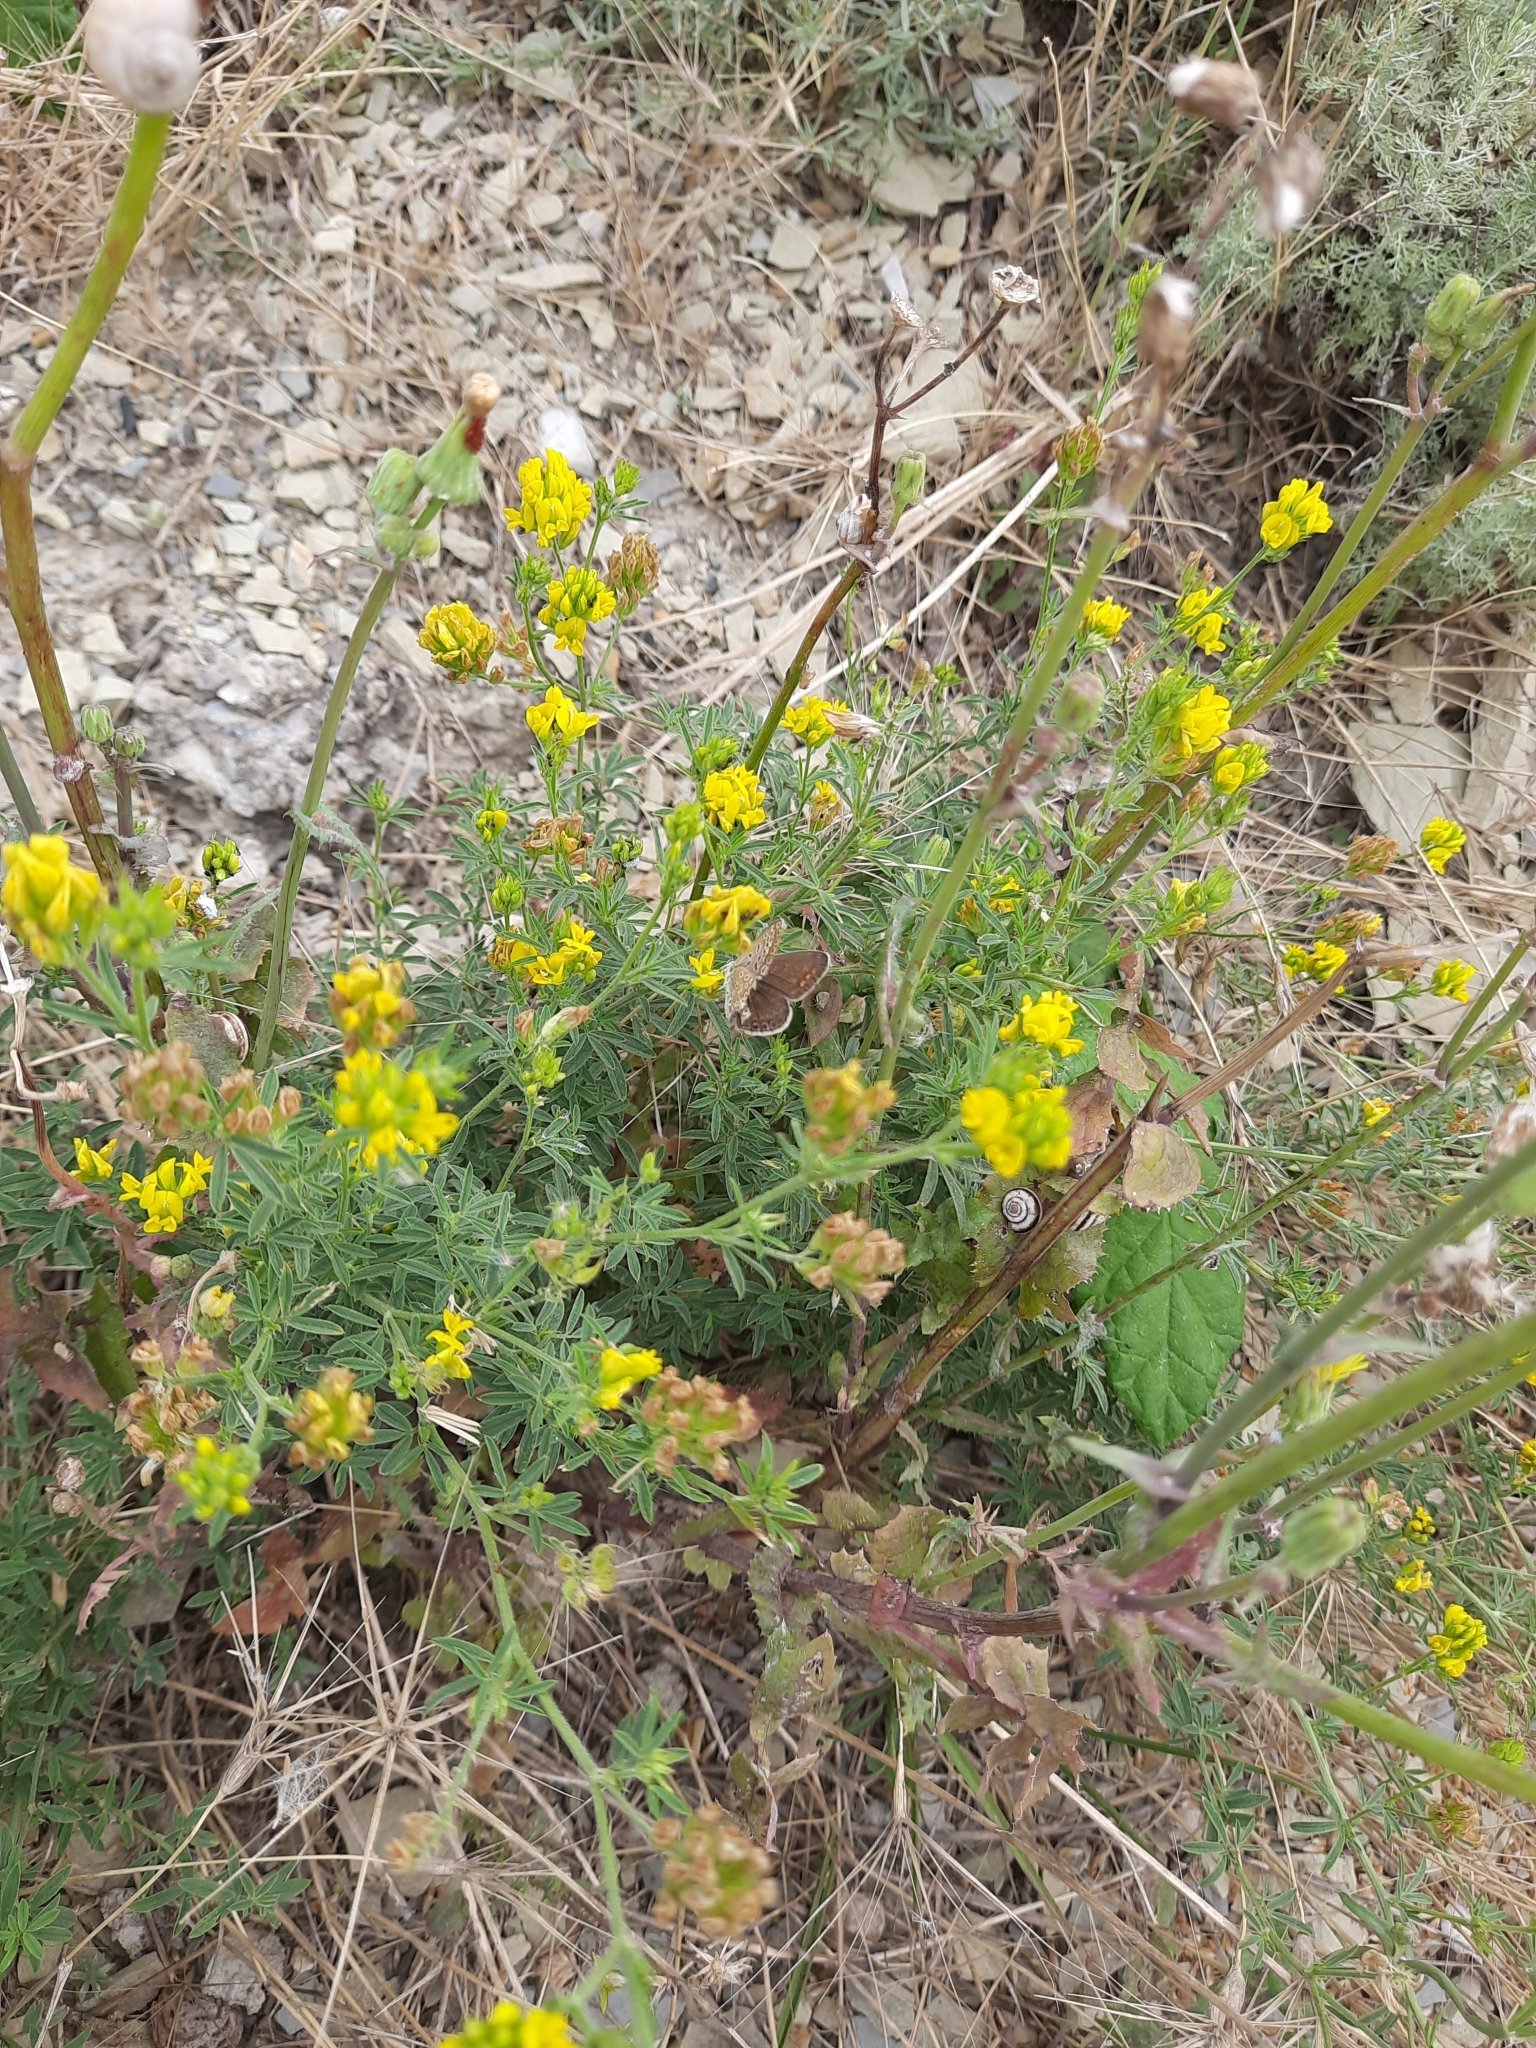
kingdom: Plantae
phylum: Tracheophyta
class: Magnoliopsida
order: Fabales
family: Fabaceae
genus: Medicago
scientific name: Medicago falcata
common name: Sickle medick
